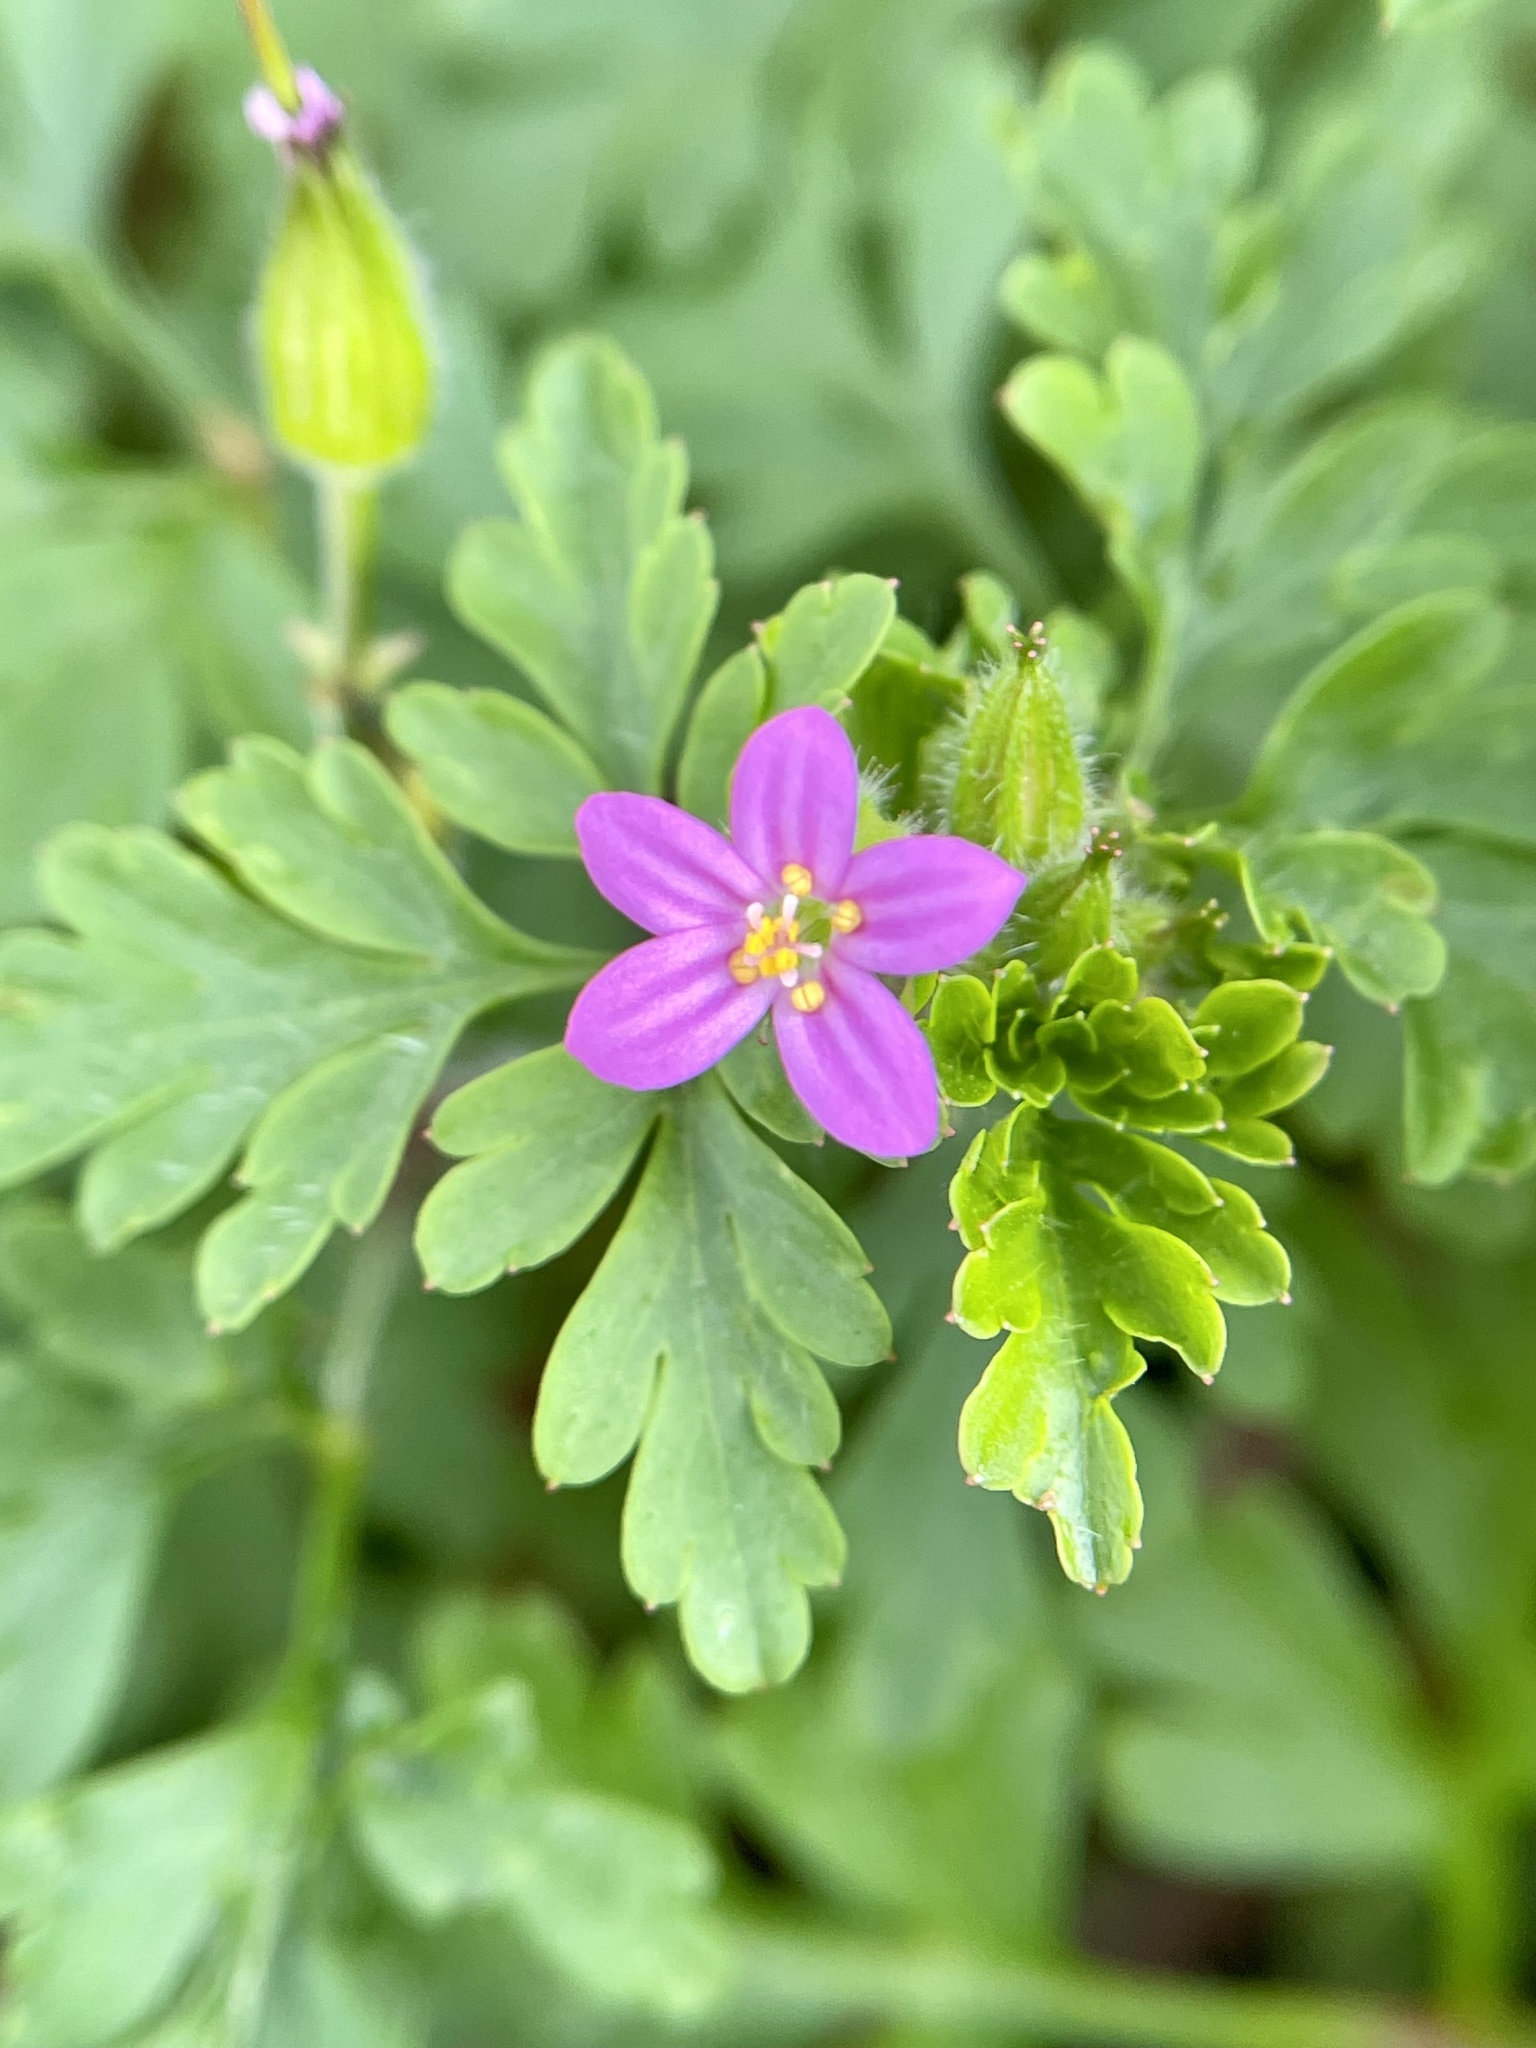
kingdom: Plantae
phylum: Tracheophyta
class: Magnoliopsida
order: Geraniales
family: Geraniaceae
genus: Geranium
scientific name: Geranium purpureum
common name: Little-robin
